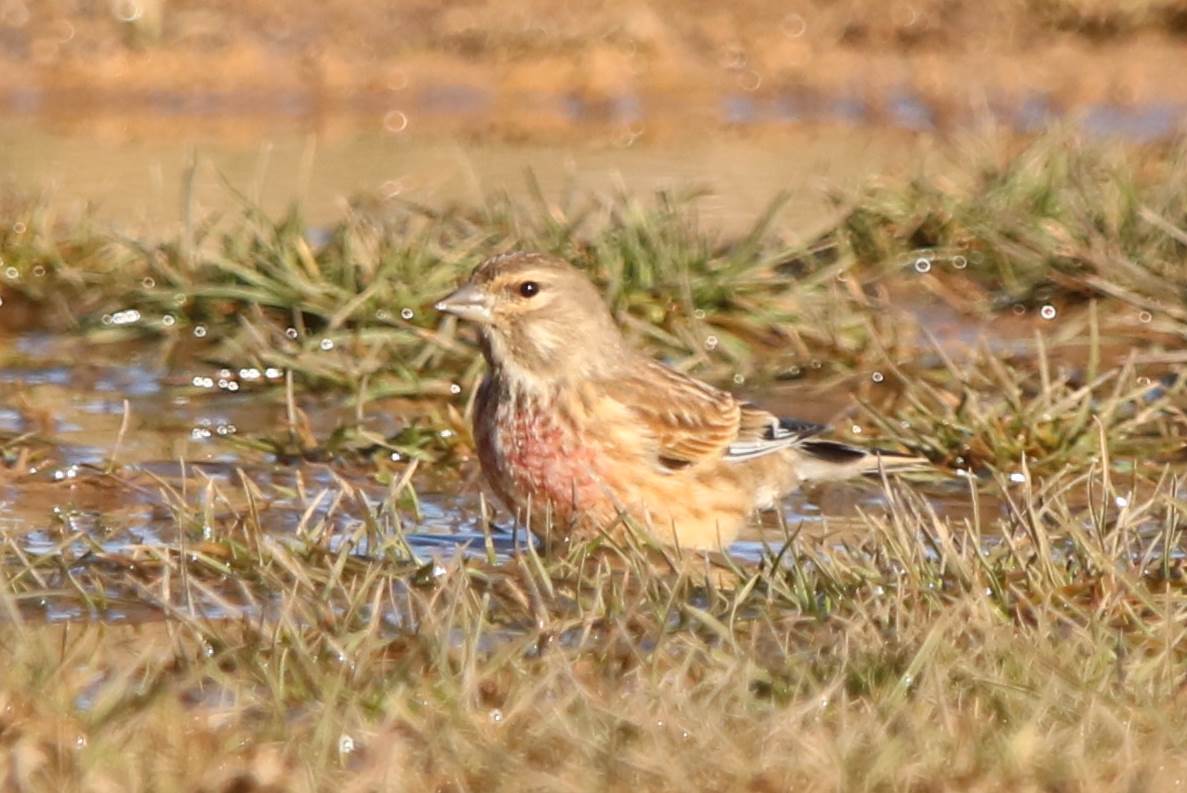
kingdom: Animalia
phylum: Chordata
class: Aves
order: Passeriformes
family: Fringillidae
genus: Linaria
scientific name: Linaria cannabina
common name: Common linnet
